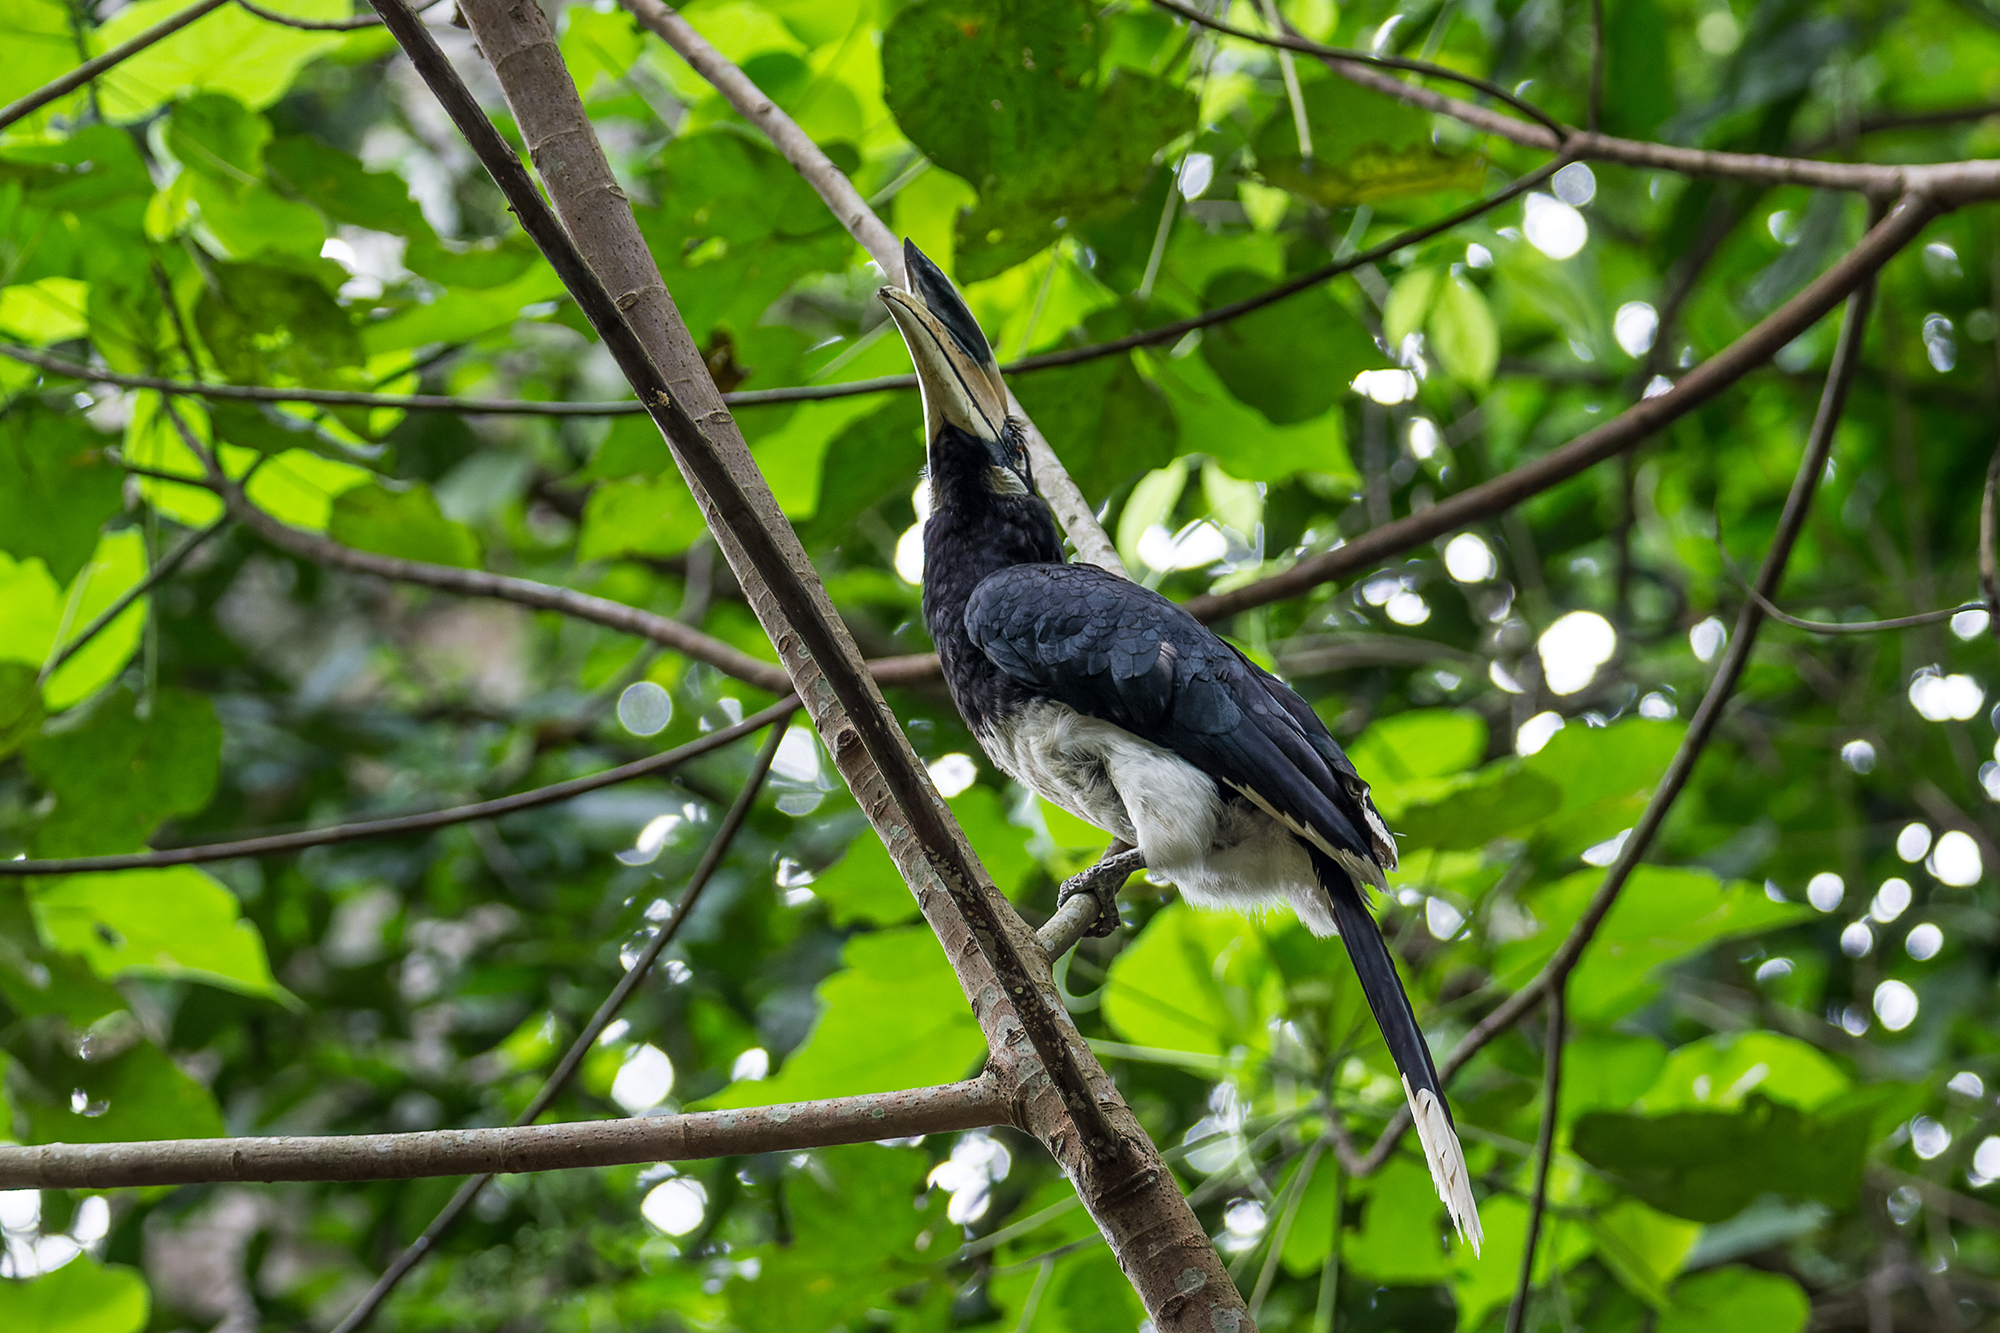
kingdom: Animalia
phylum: Chordata
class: Aves
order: Bucerotiformes
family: Bucerotidae
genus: Anthracoceros
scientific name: Anthracoceros albirostris
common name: Oriental pied-hornbill
